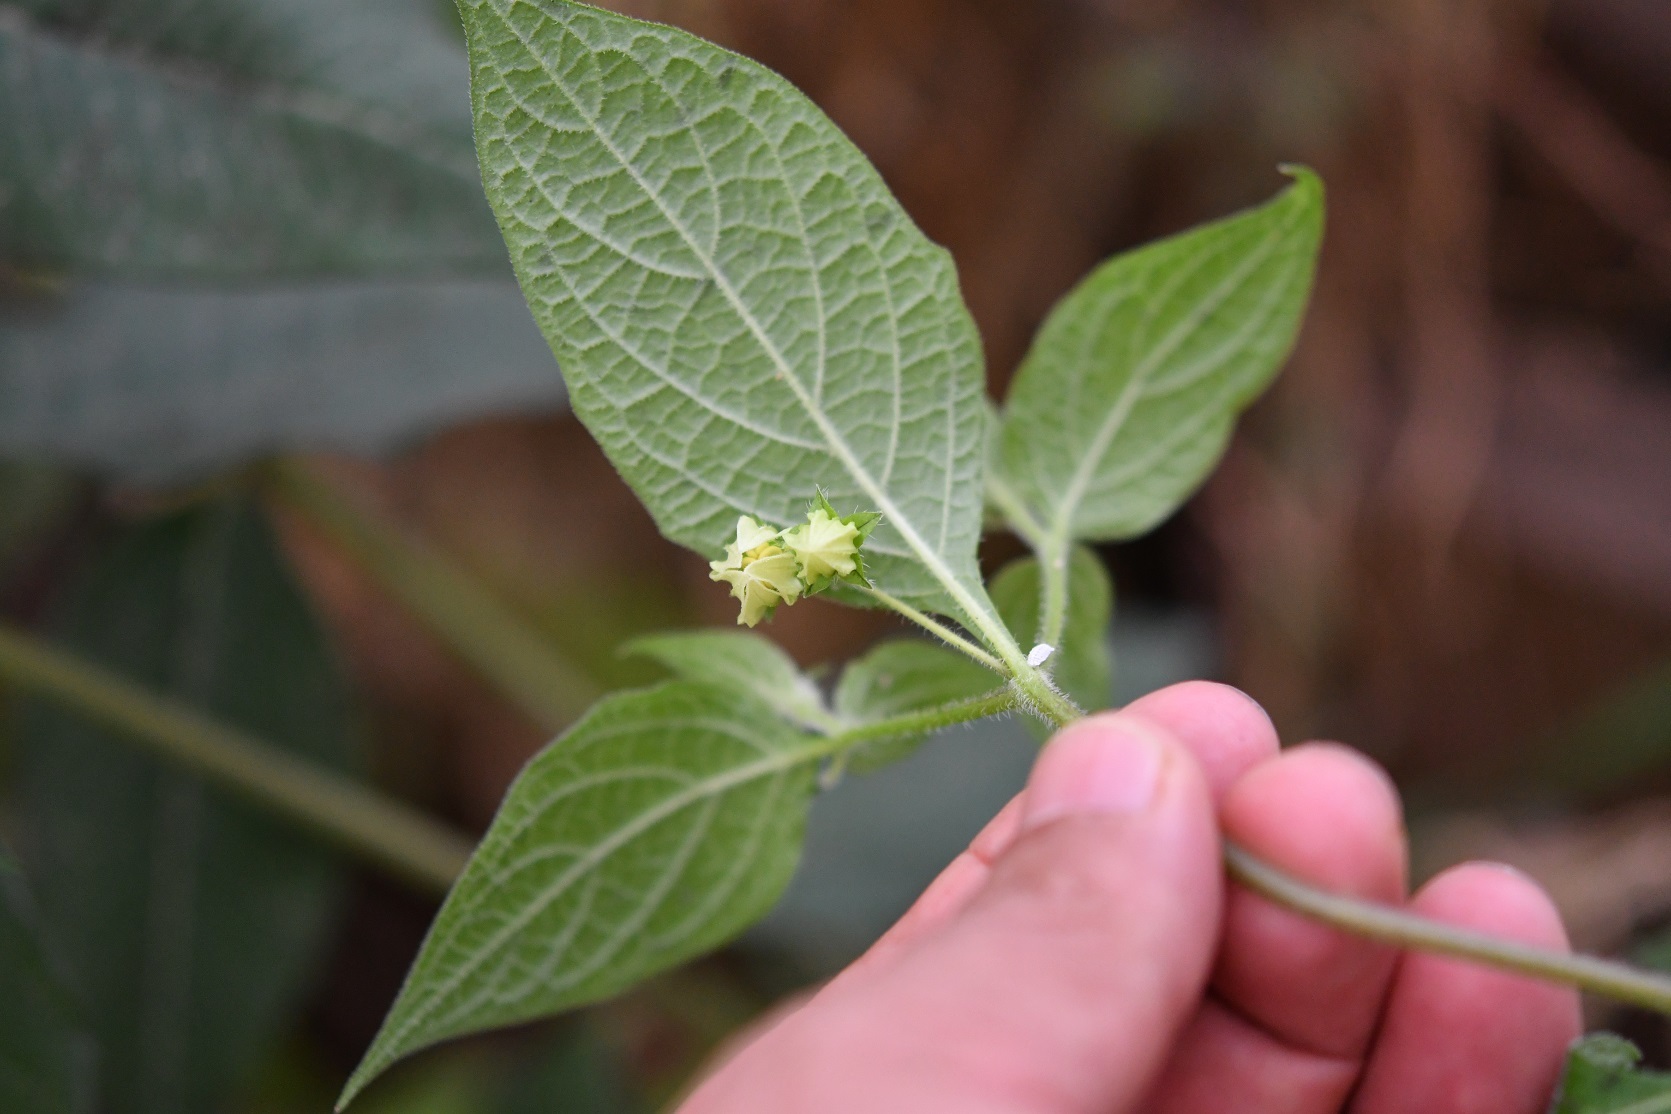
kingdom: Plantae
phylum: Tracheophyta
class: Magnoliopsida
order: Solanales
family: Solanaceae
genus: Jaltomata
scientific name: Jaltomata procumbens
